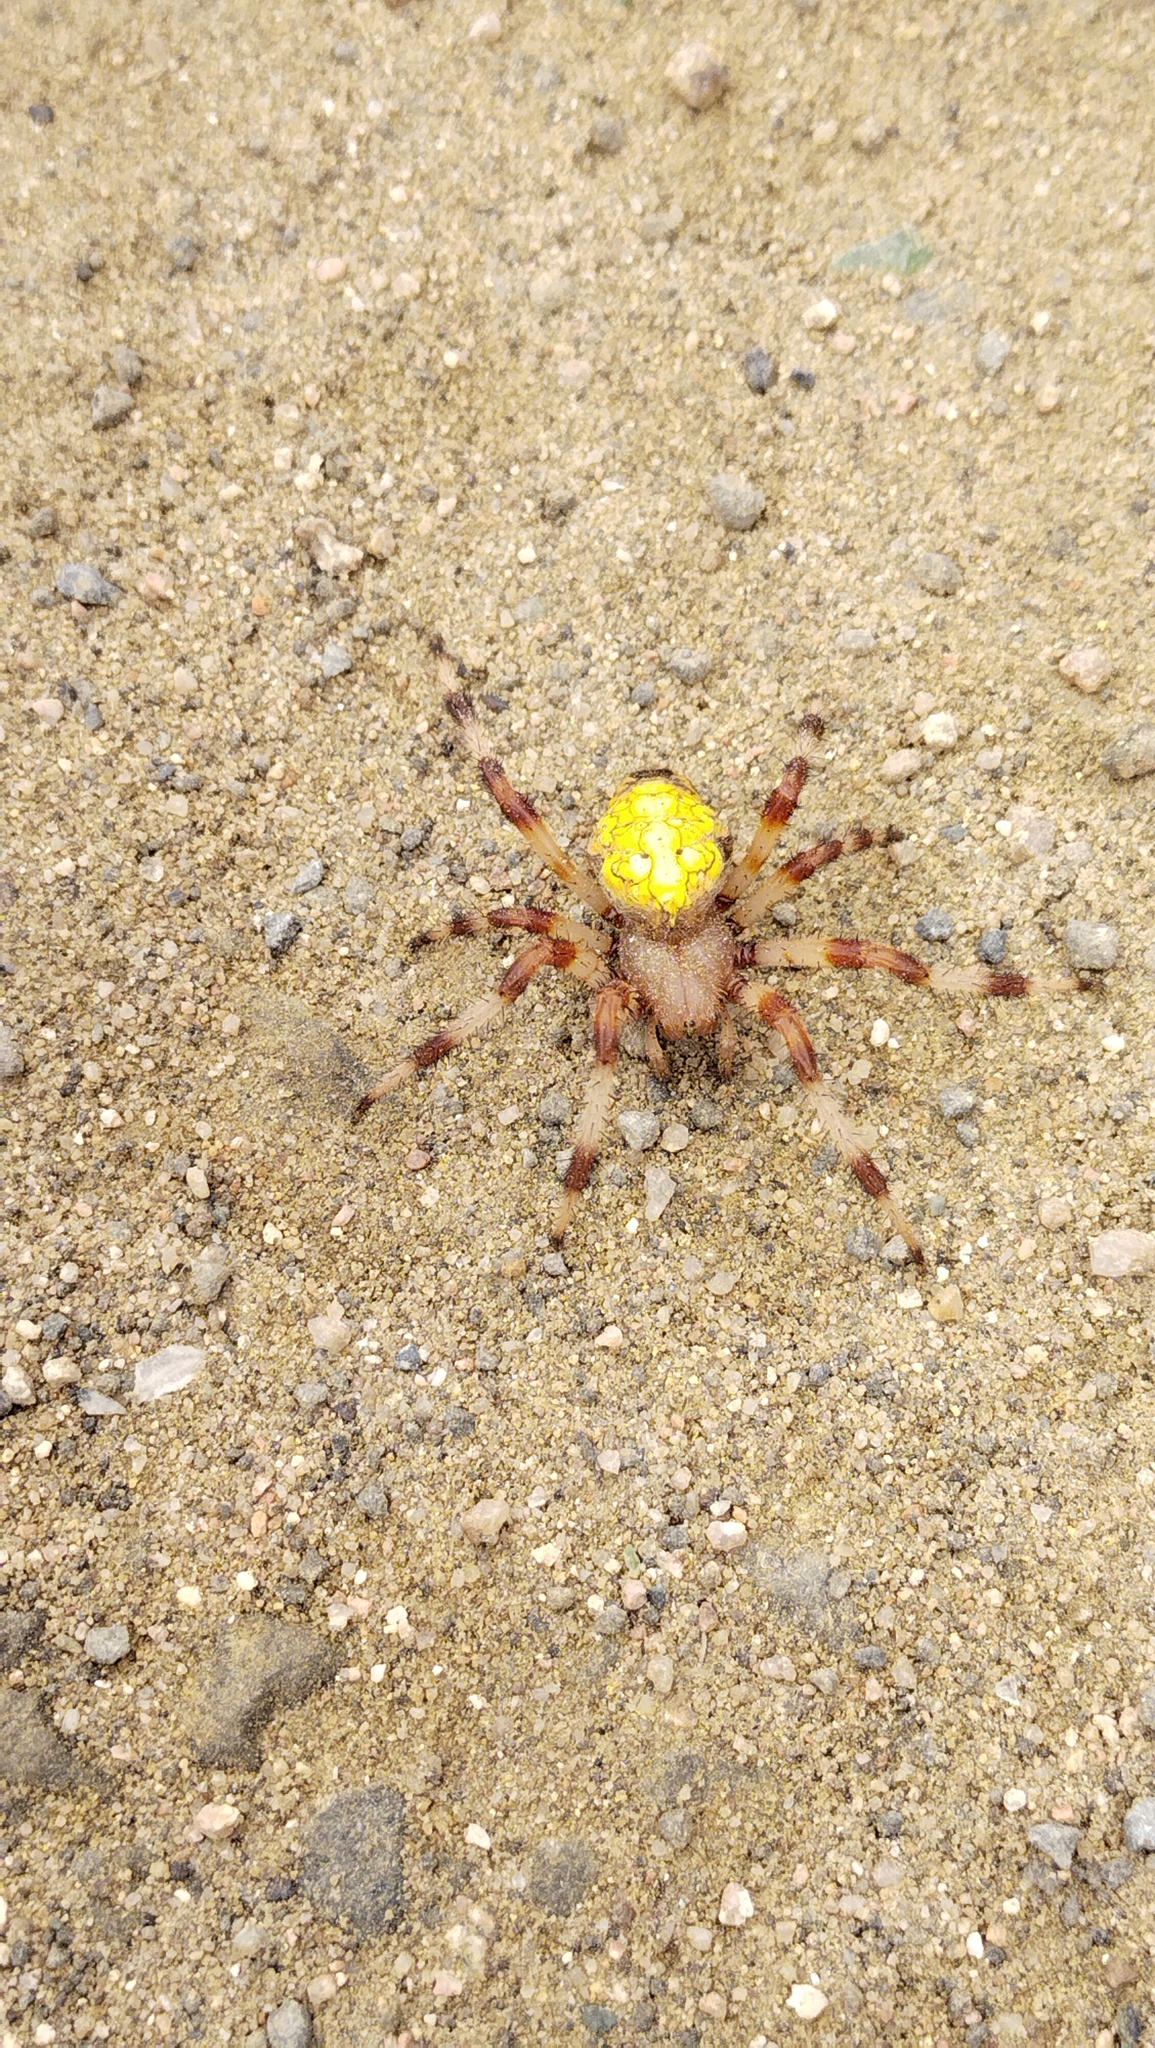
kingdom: Animalia
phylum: Arthropoda
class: Arachnida
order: Araneae
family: Araneidae
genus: Araneus
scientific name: Araneus marmoreus
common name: Marbled orbweaver
